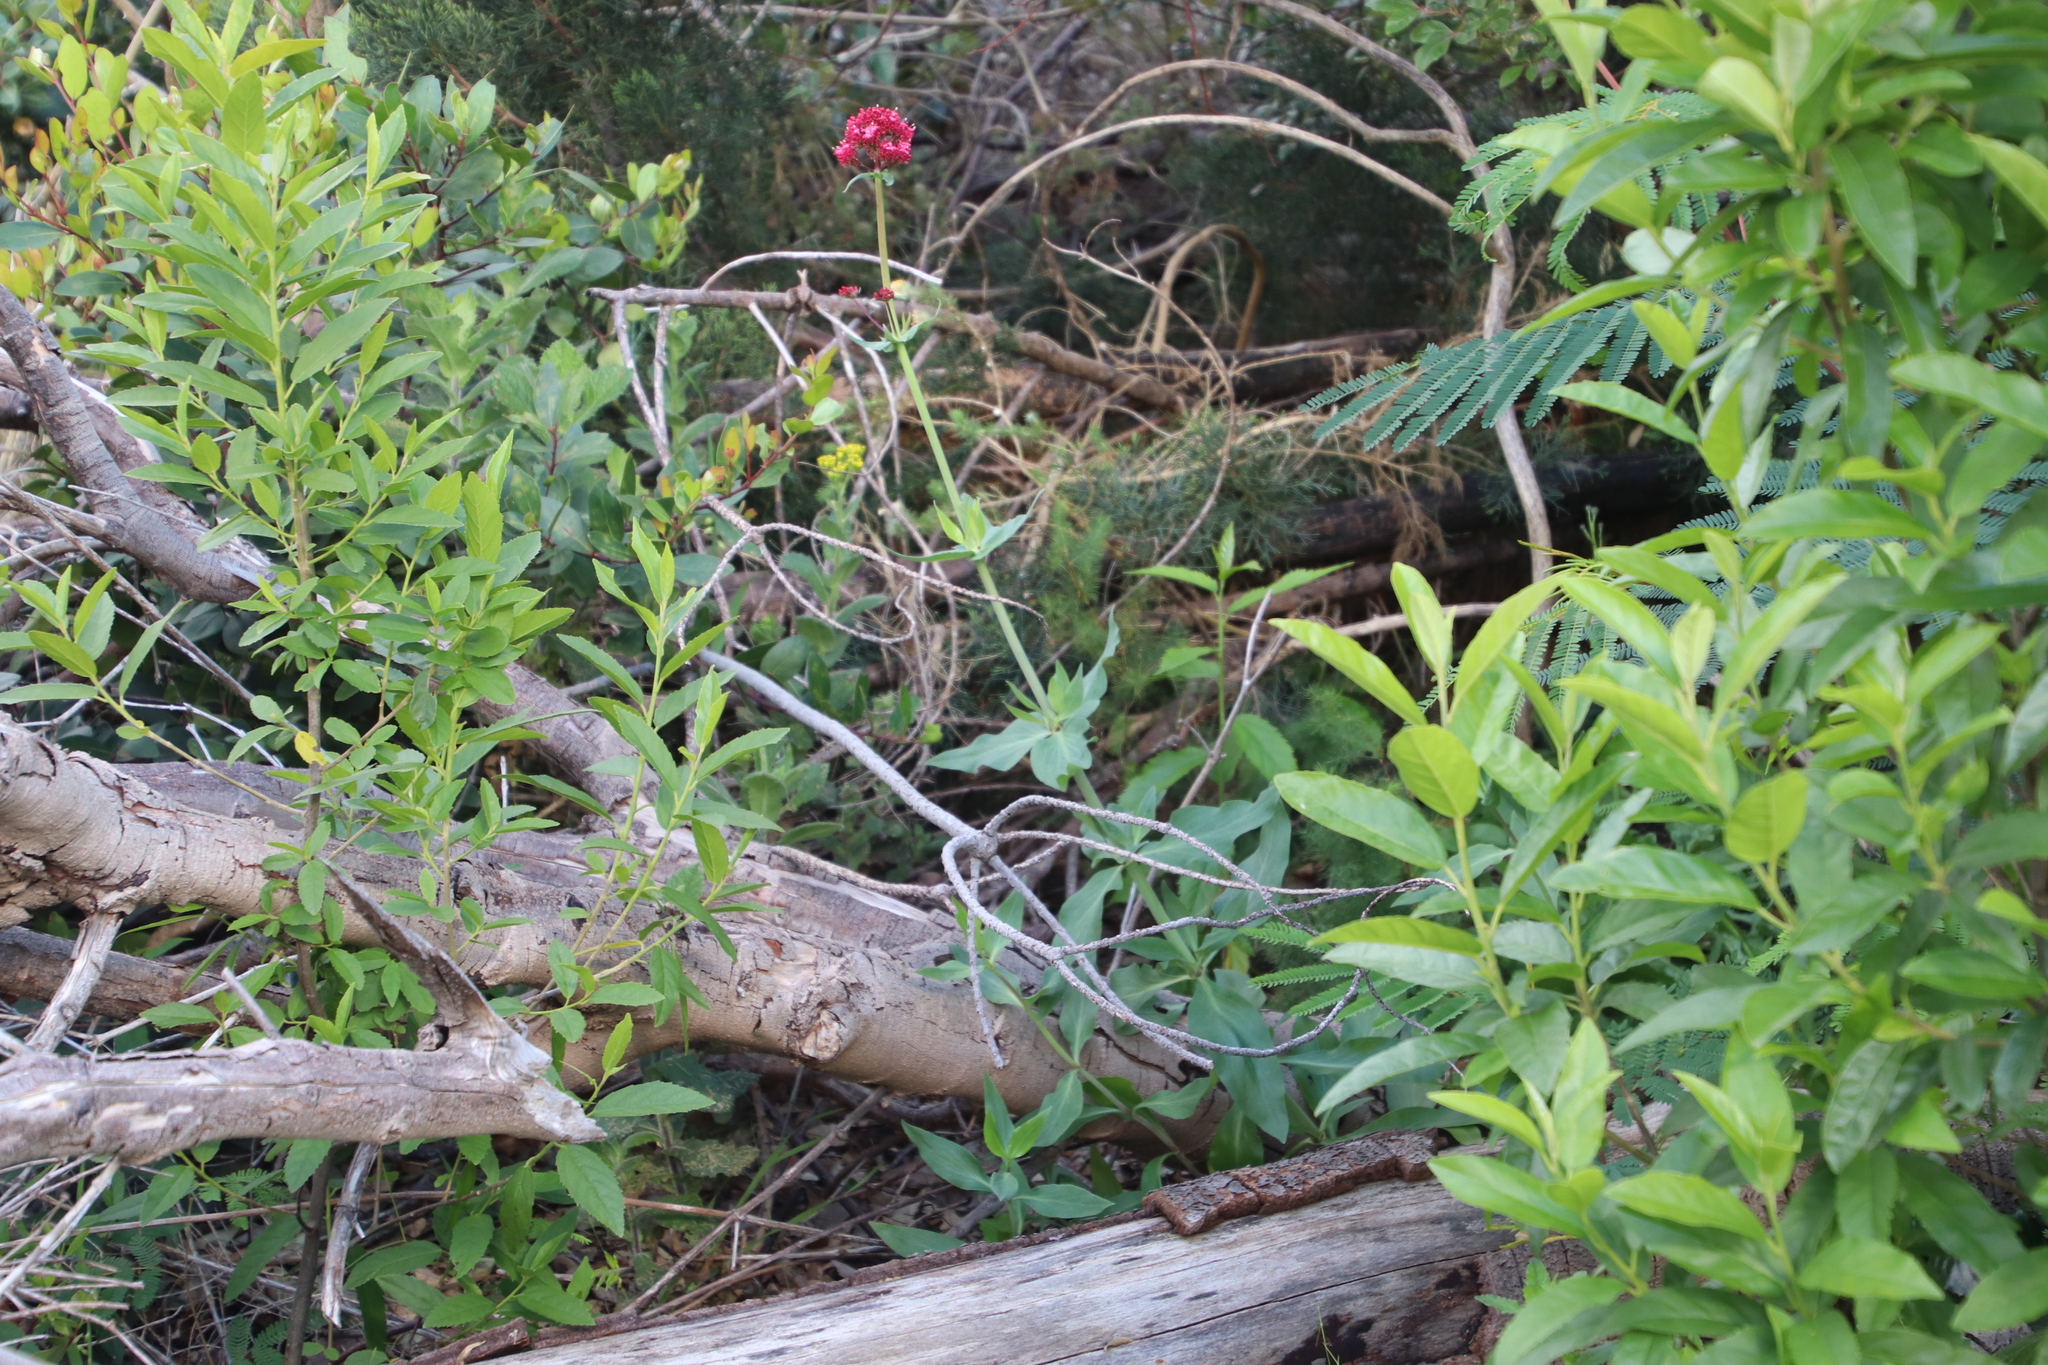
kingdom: Plantae
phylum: Tracheophyta
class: Magnoliopsida
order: Dipsacales
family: Caprifoliaceae
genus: Centranthus
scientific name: Centranthus ruber
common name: Red valerian
